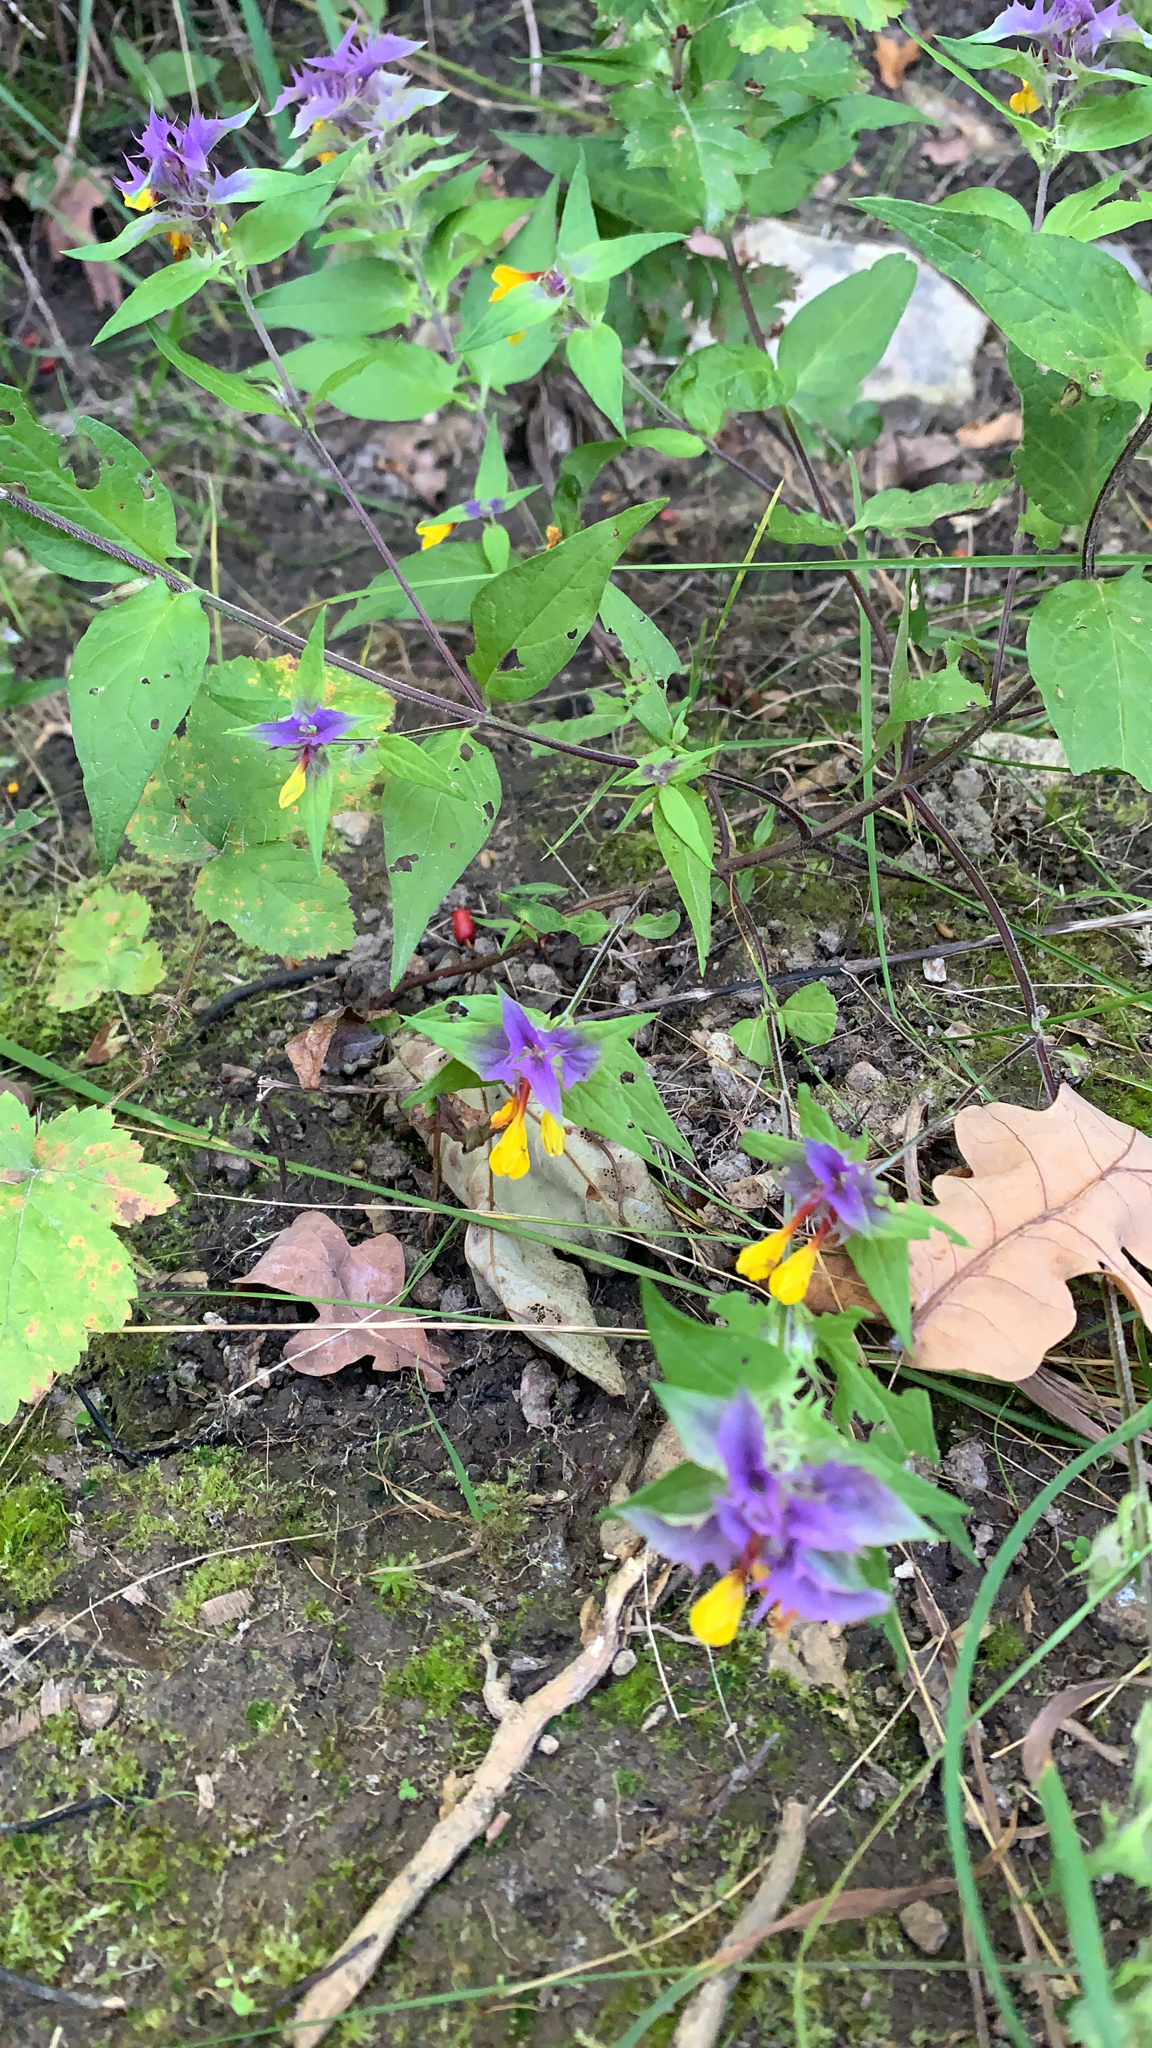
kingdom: Plantae
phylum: Tracheophyta
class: Magnoliopsida
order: Lamiales
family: Orobanchaceae
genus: Melampyrum
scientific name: Melampyrum nemorosum
